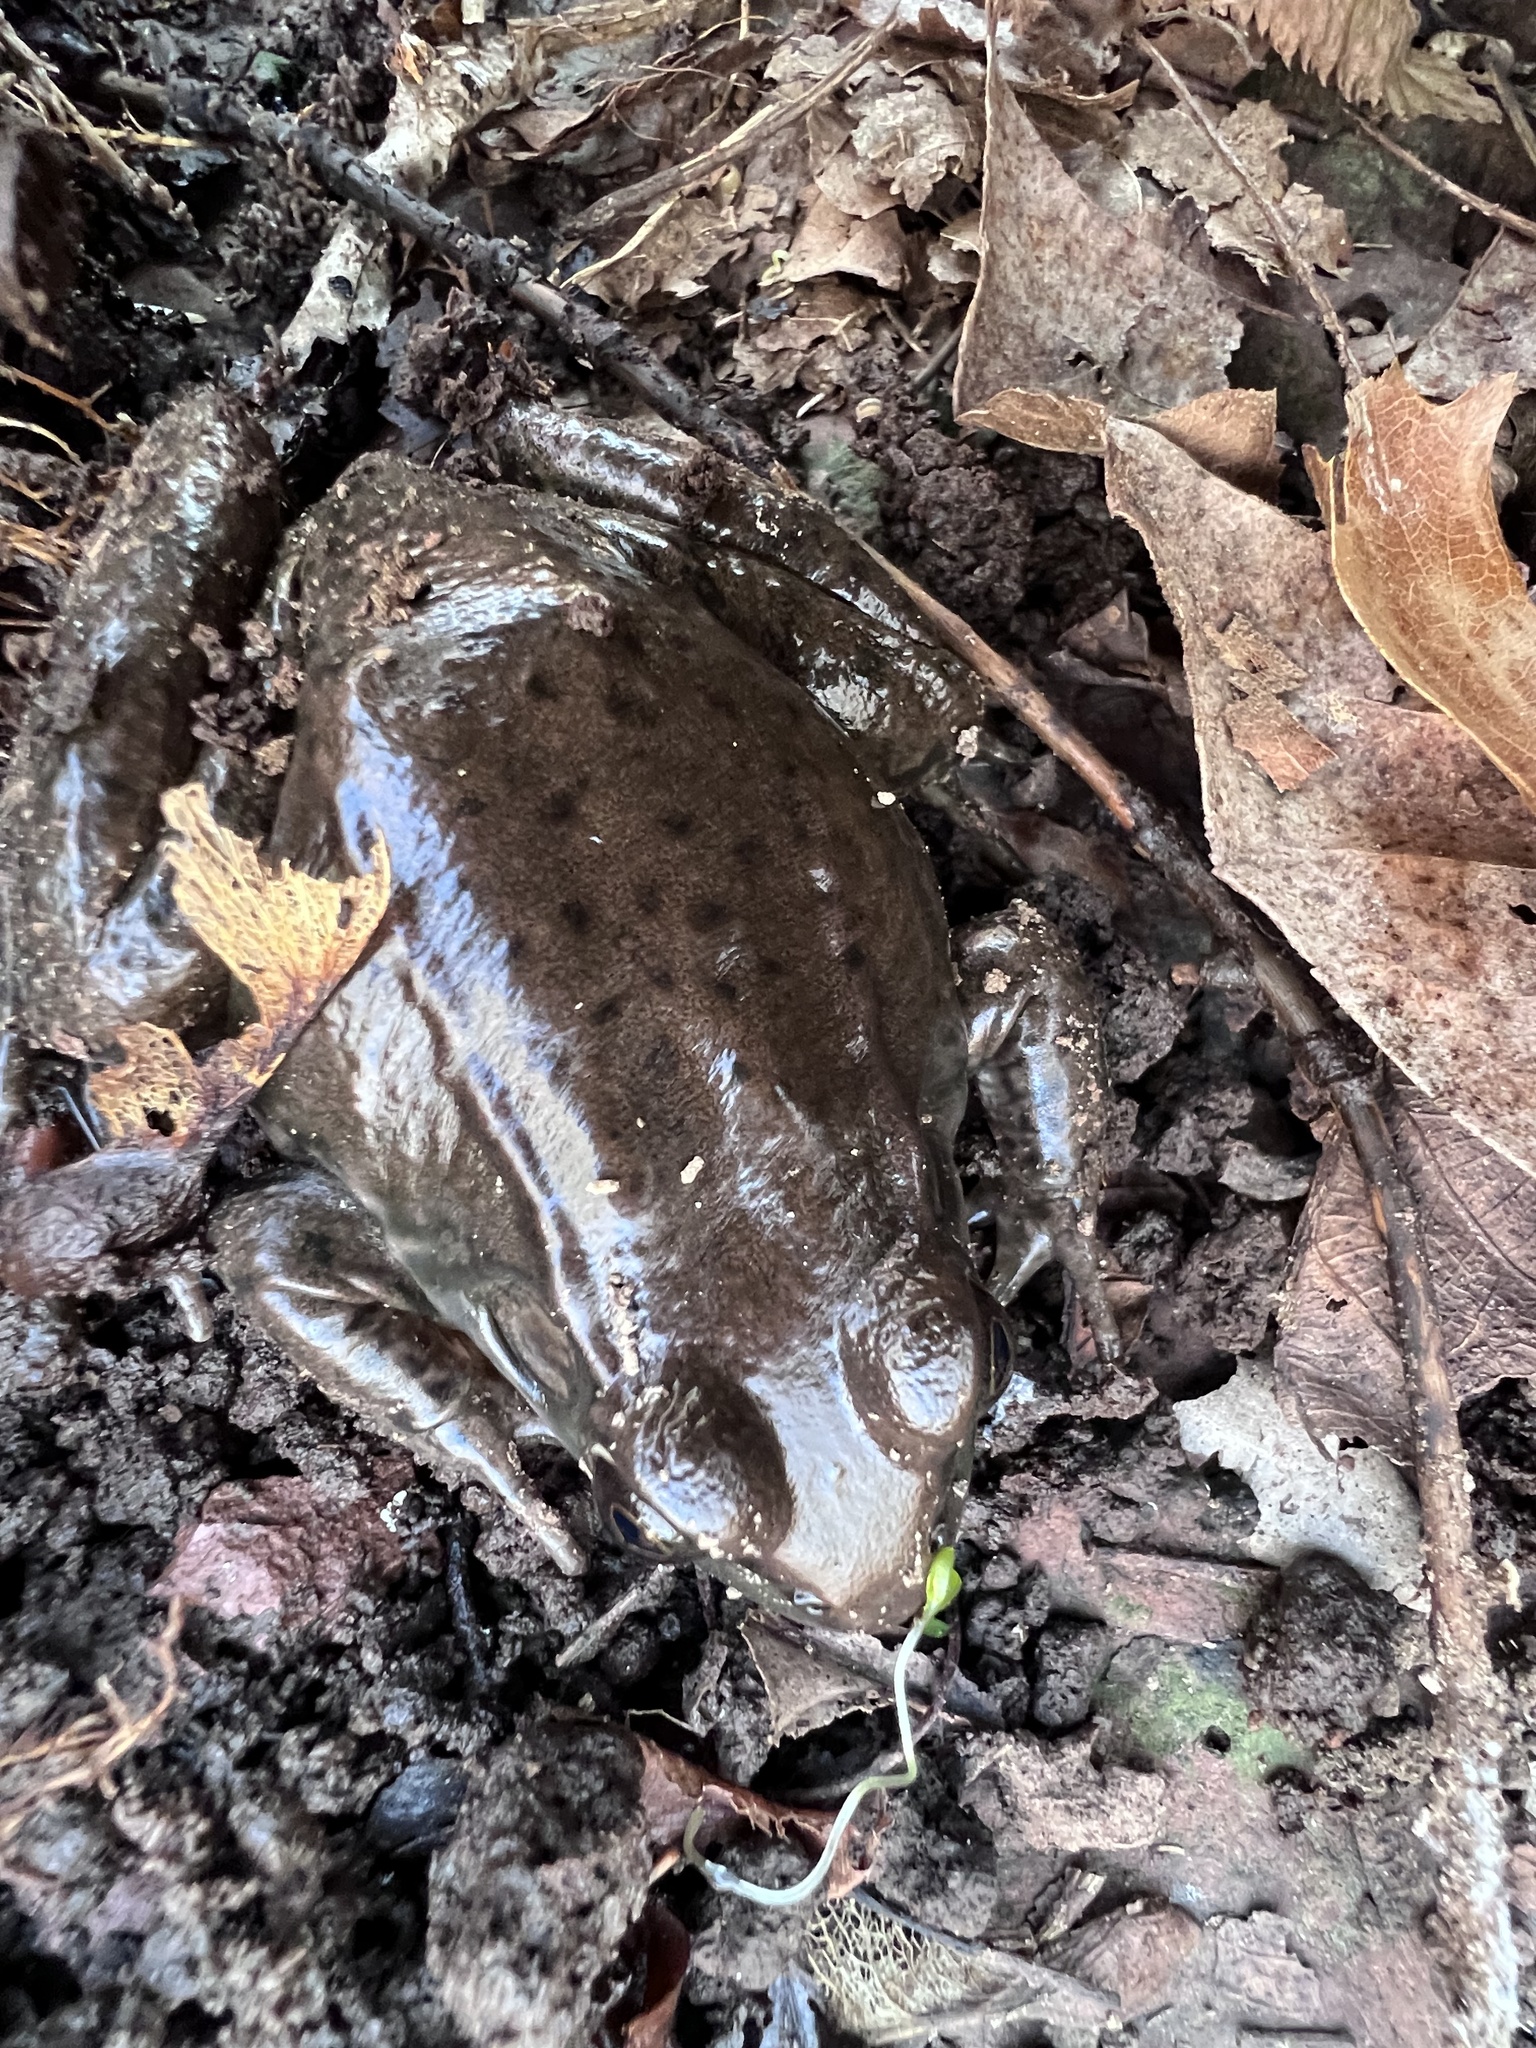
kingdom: Animalia
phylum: Chordata
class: Amphibia
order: Anura
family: Ranidae
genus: Lithobates
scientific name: Lithobates clamitans
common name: Green frog
